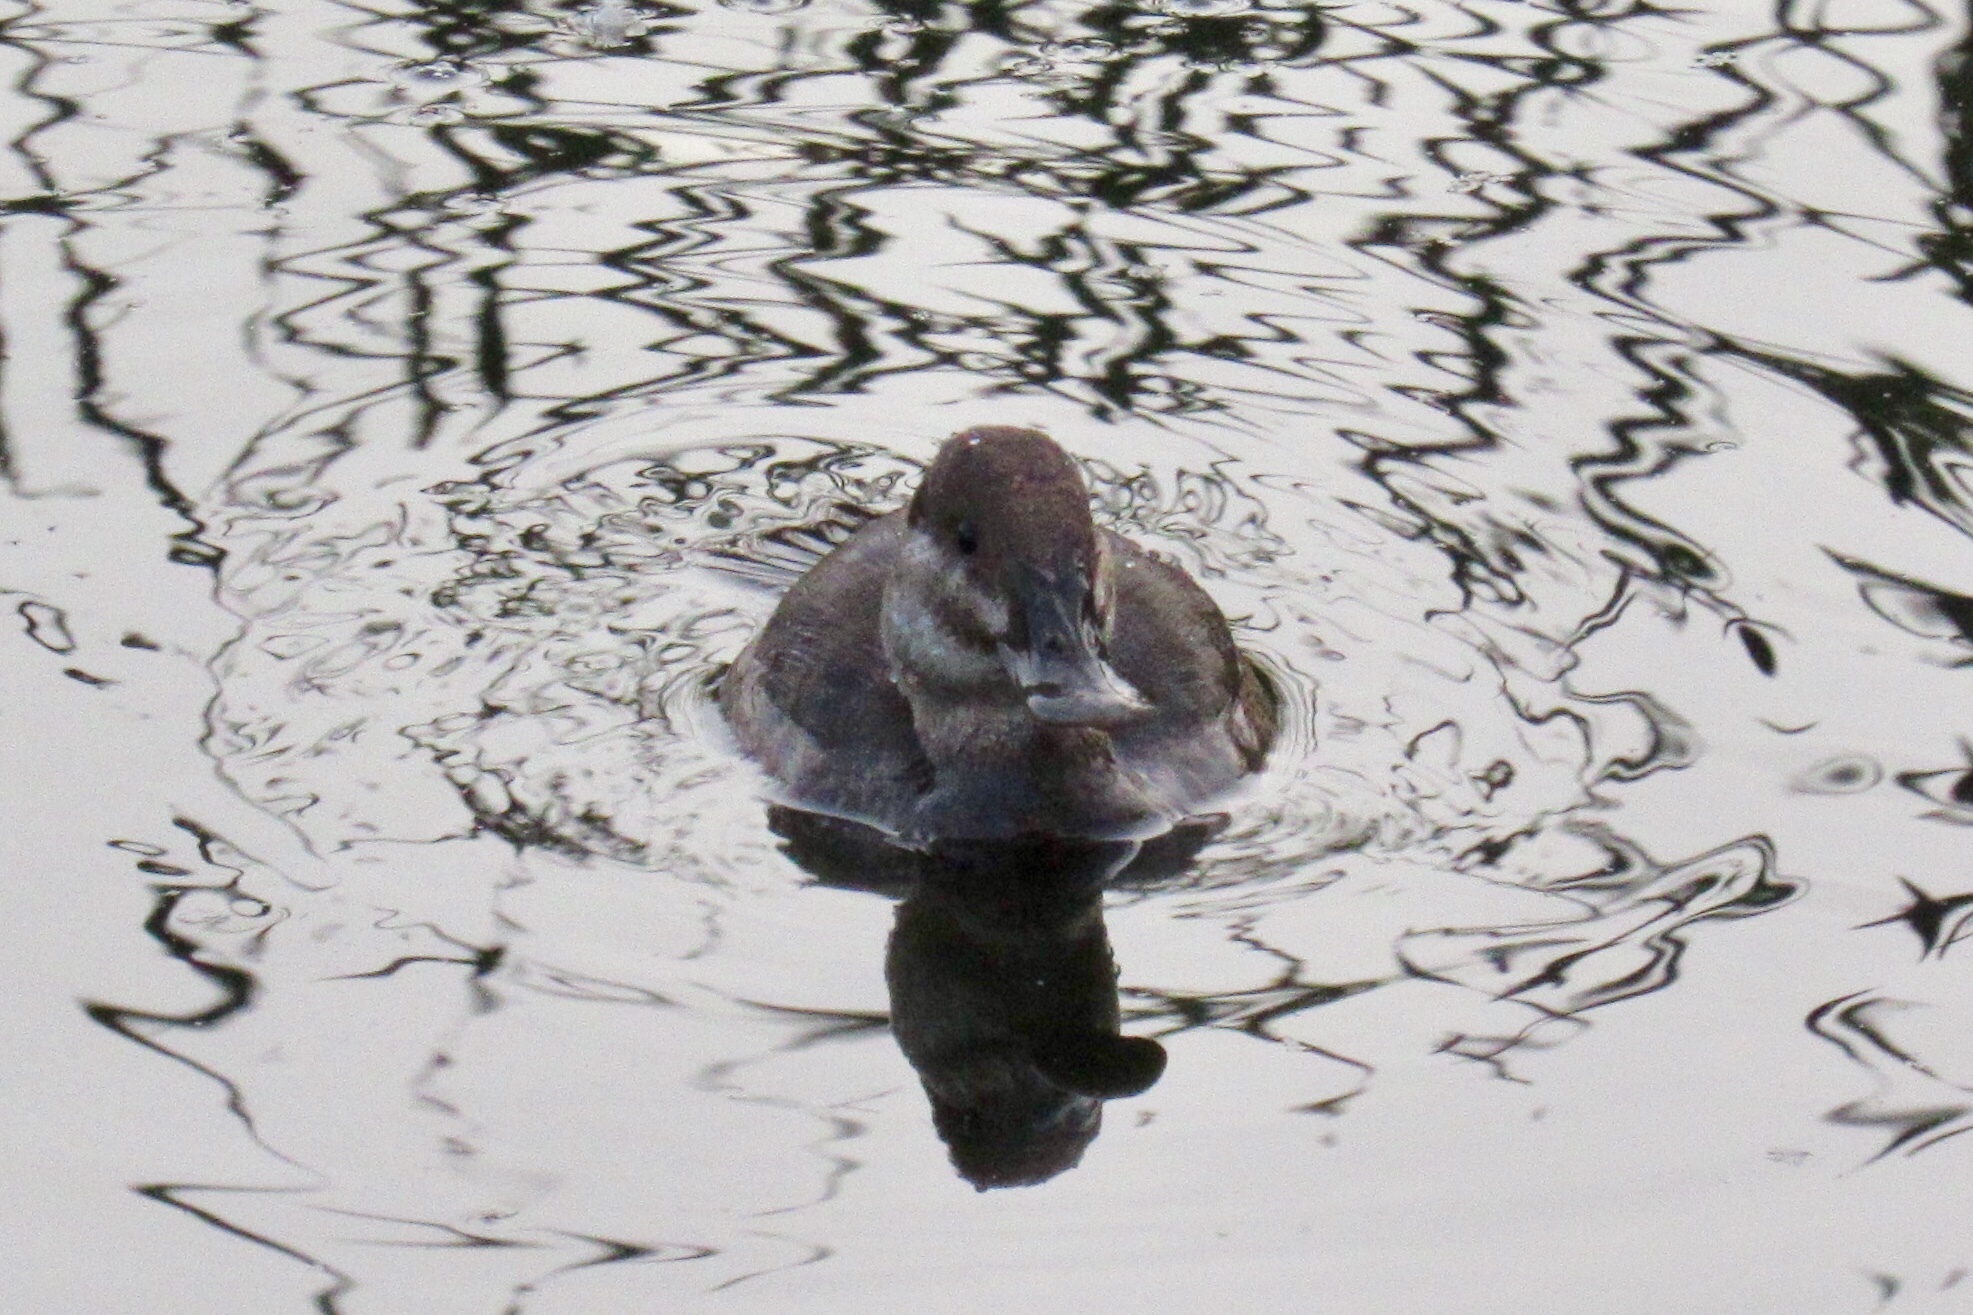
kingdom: Animalia
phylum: Chordata
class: Aves
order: Anseriformes
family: Anatidae
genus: Oxyura
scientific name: Oxyura jamaicensis
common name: Ruddy duck
